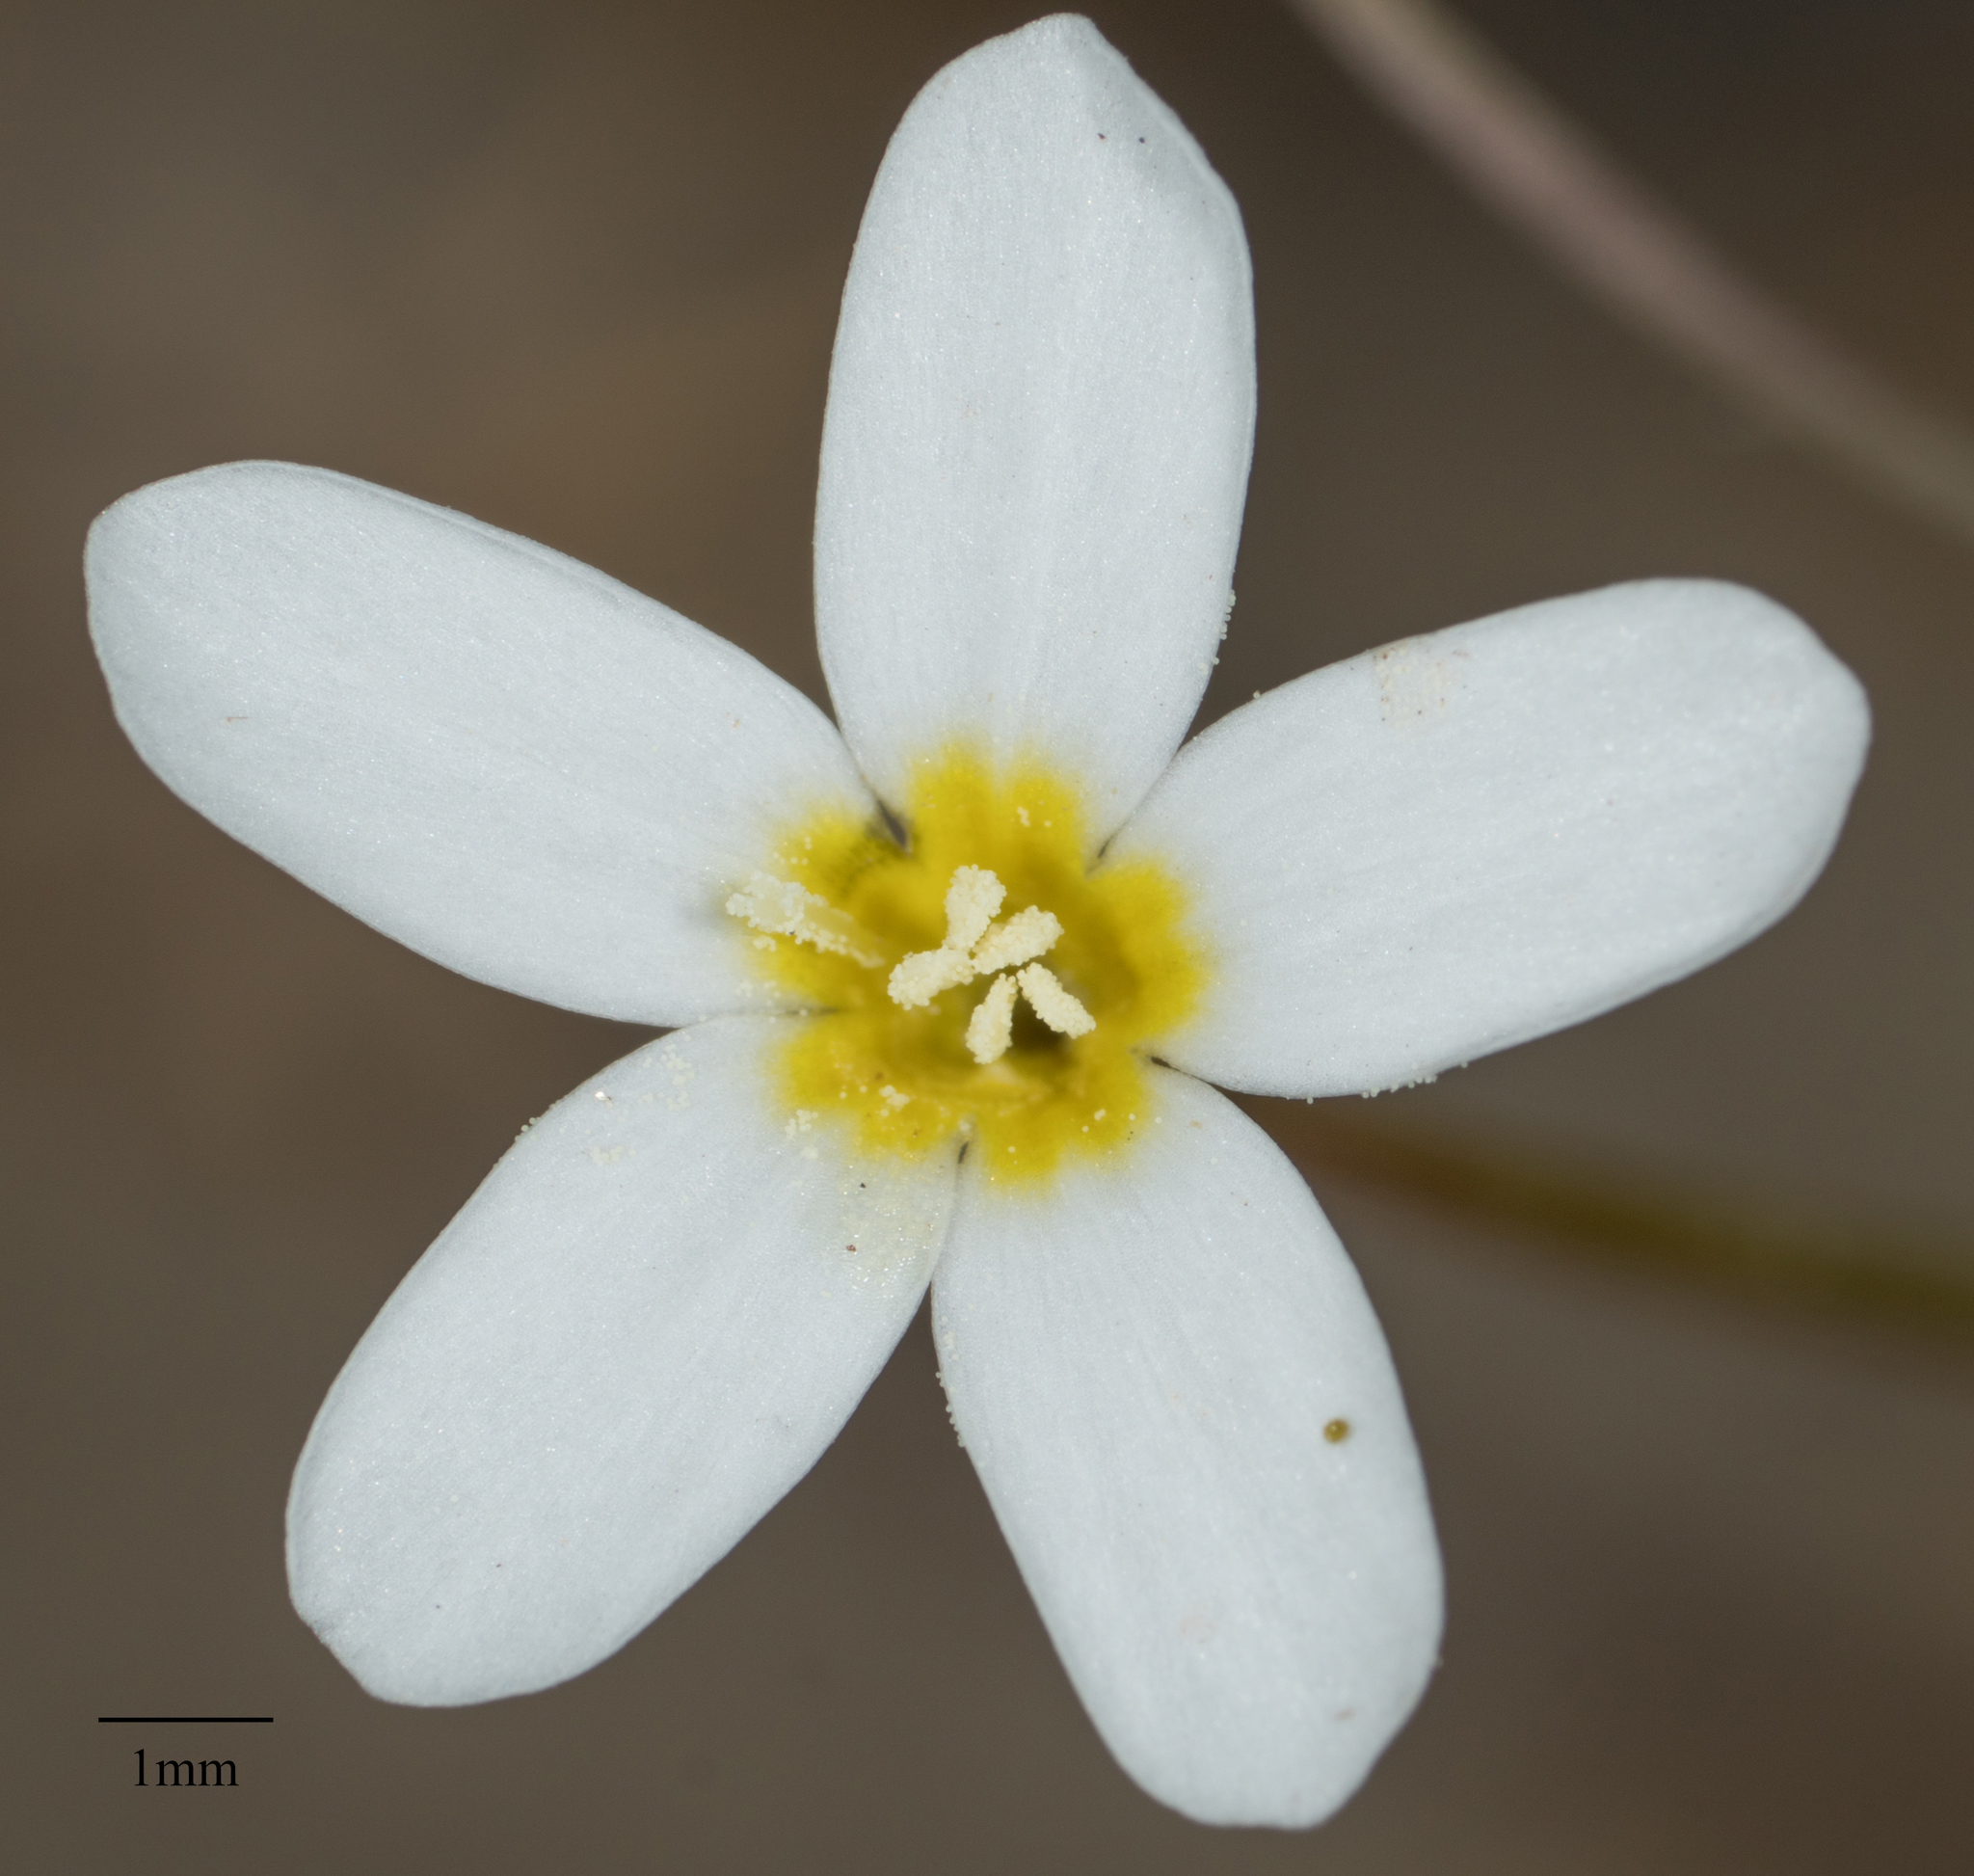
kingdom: Plantae
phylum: Tracheophyta
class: Magnoliopsida
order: Ericales
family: Polemoniaceae
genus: Leptosiphon
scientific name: Leptosiphon breviculus
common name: Mojave linanthus
